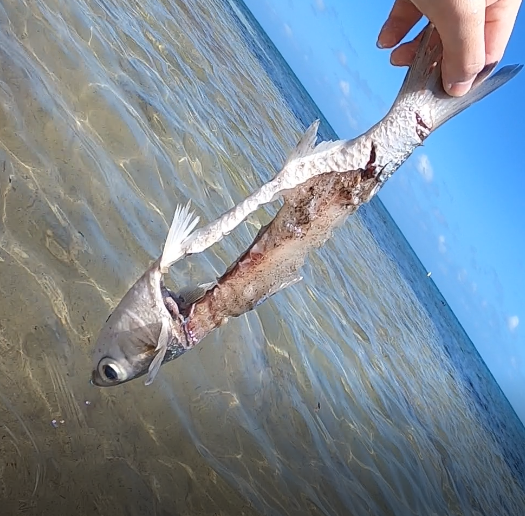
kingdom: Animalia
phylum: Chordata
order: Mugiliformes
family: Mugilidae
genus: Mugil
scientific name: Mugil
